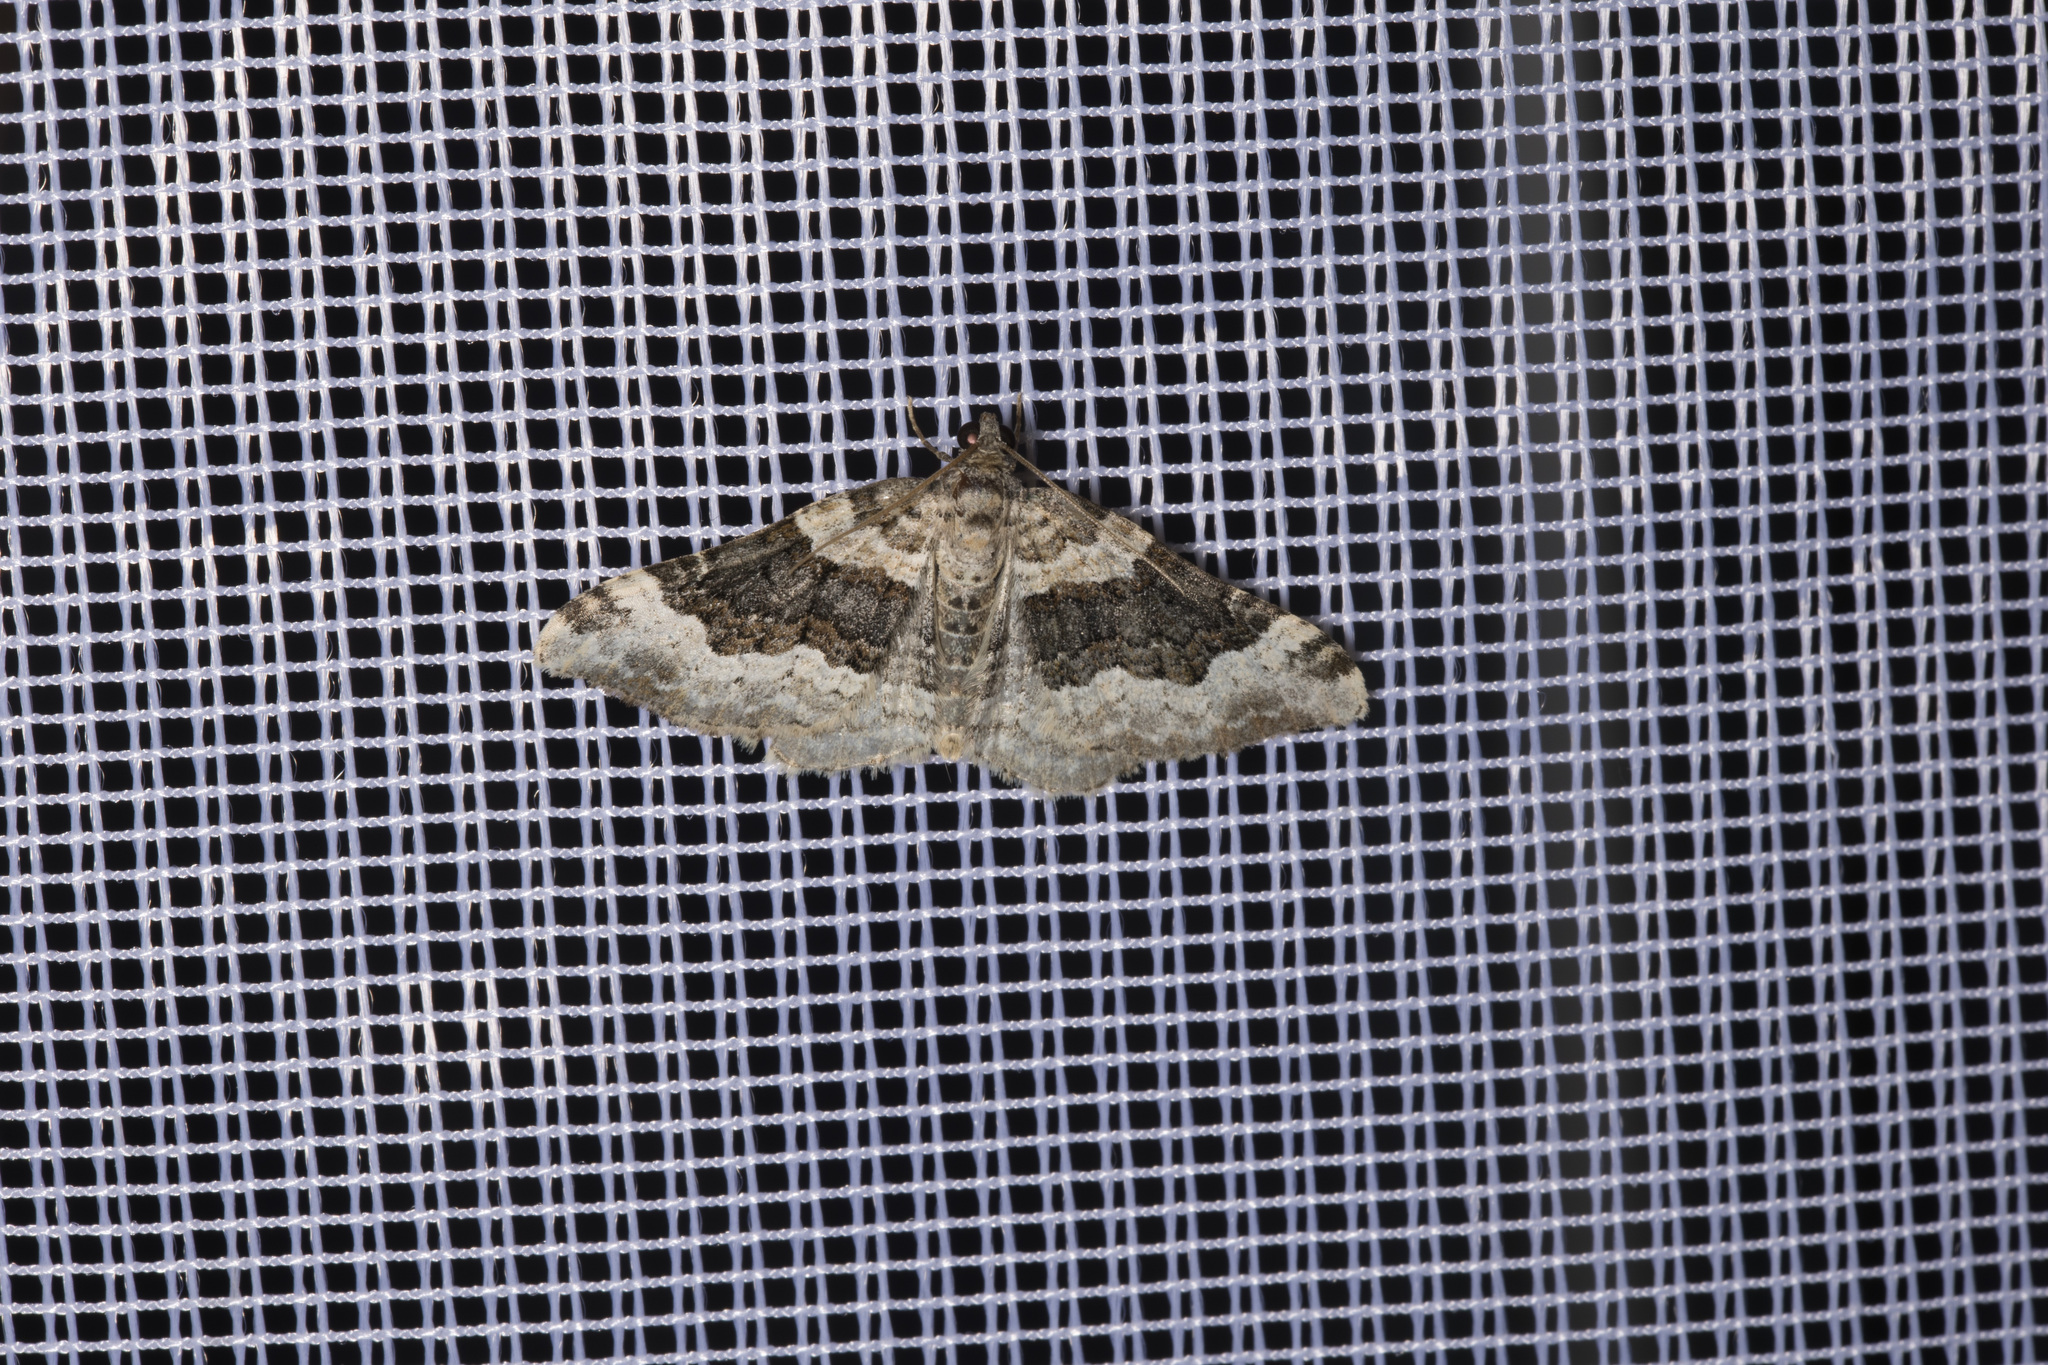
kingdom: Animalia
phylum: Arthropoda
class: Insecta
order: Lepidoptera
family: Geometridae
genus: Epirrhoe
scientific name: Epirrhoe galiata
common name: Galium carpet
